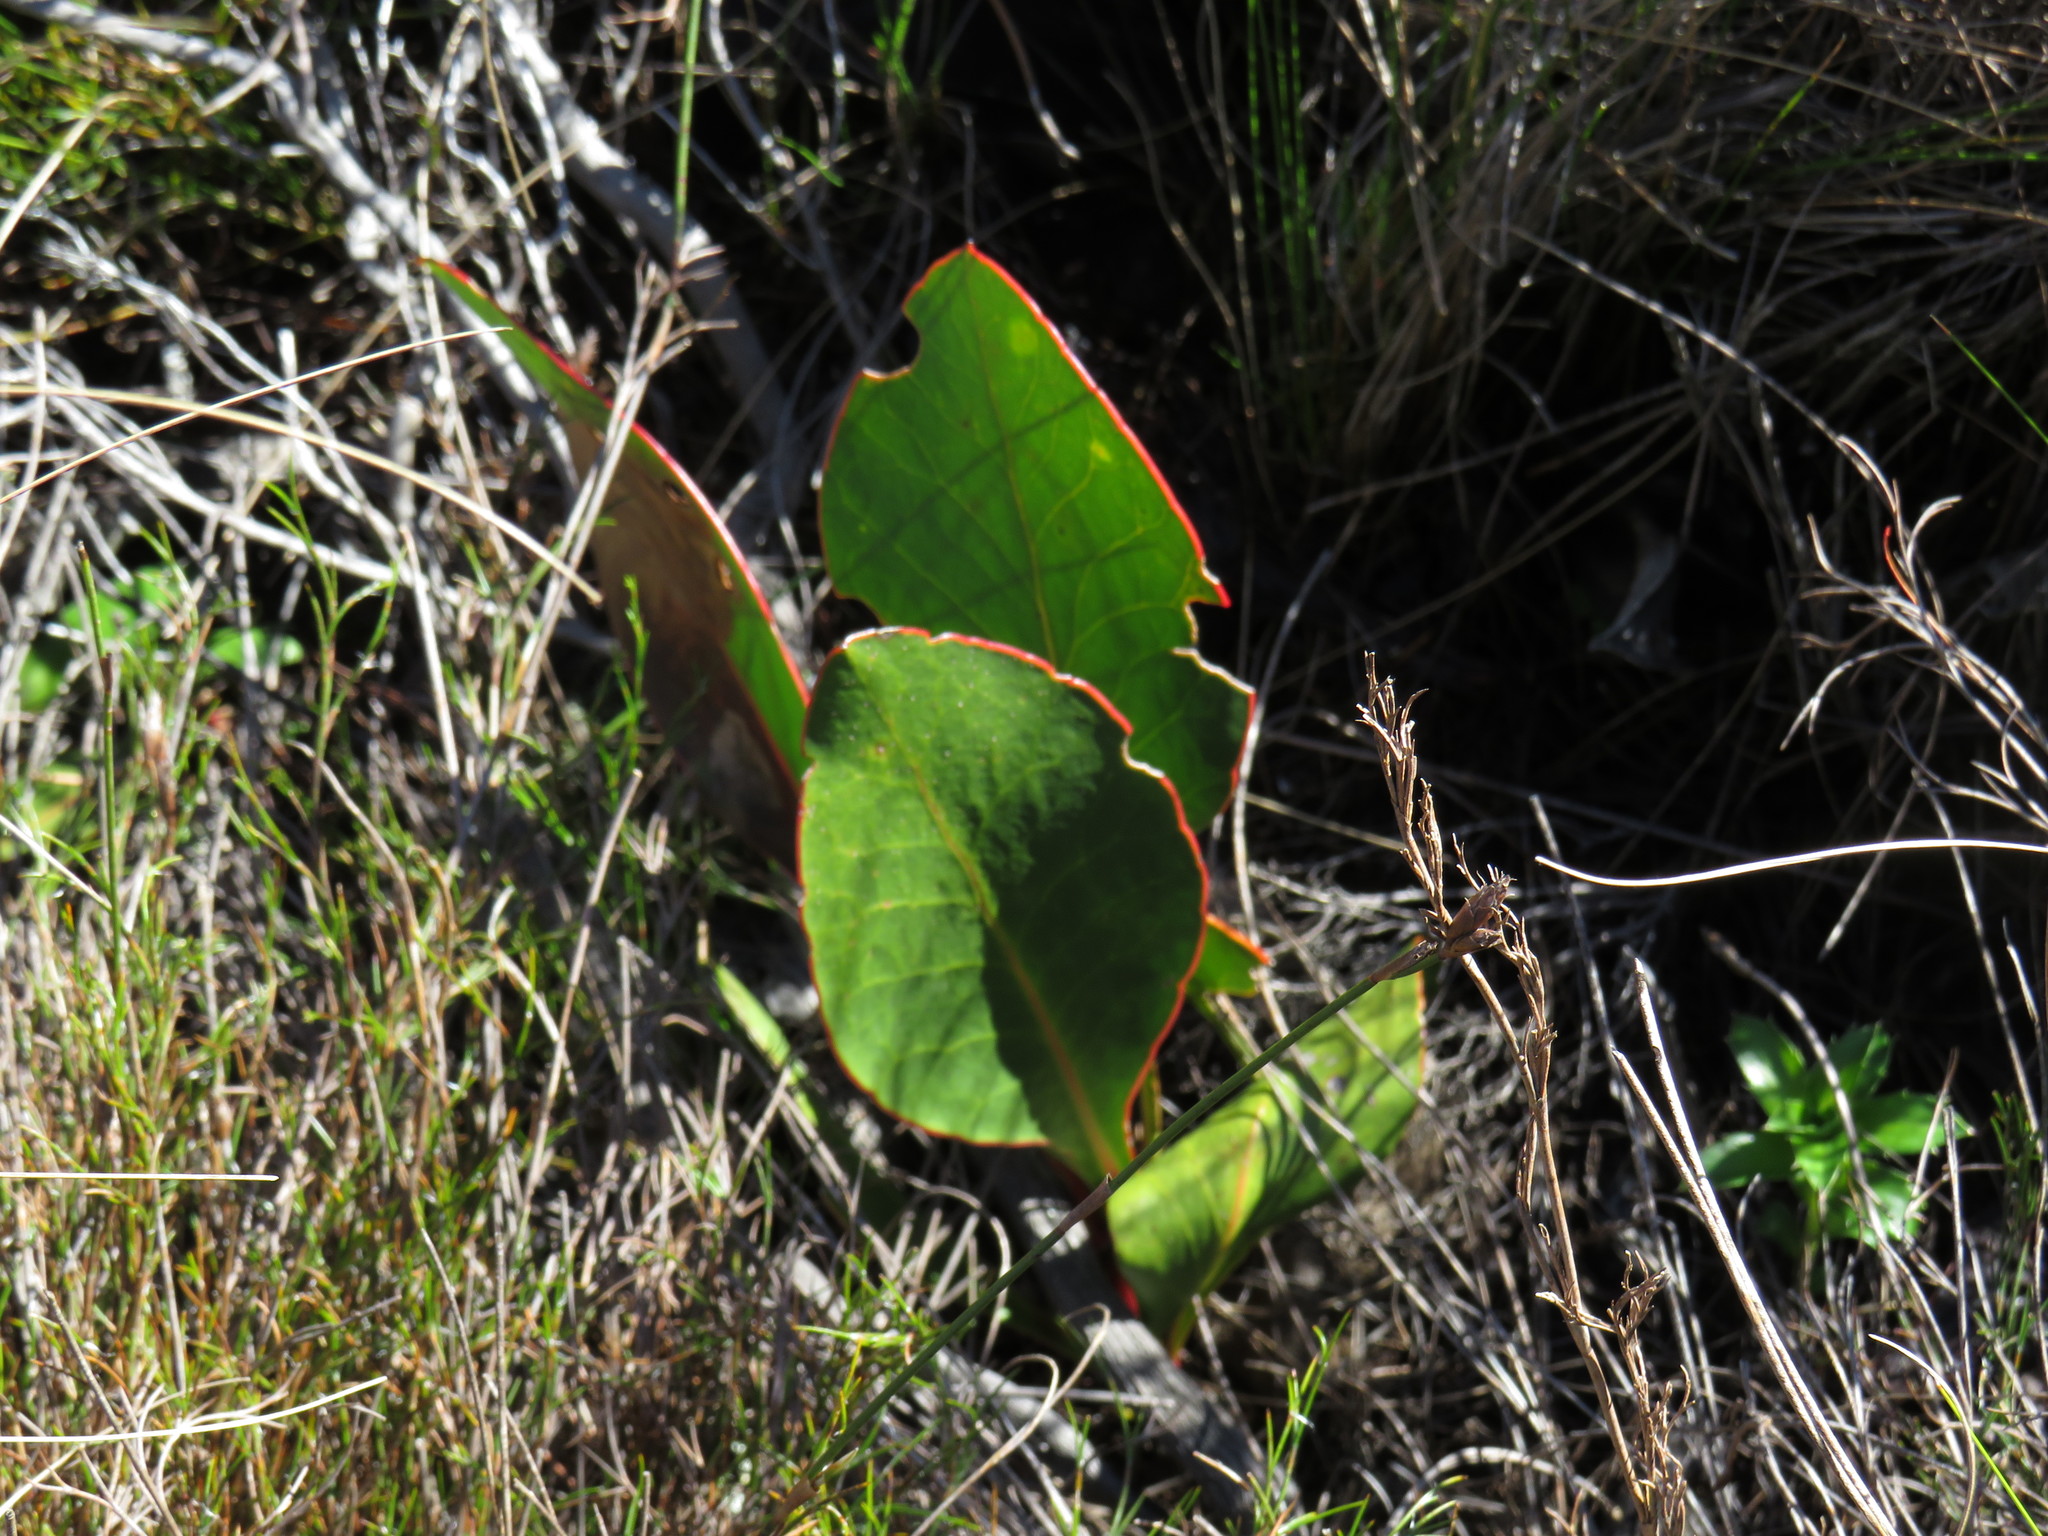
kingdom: Plantae
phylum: Tracheophyta
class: Magnoliopsida
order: Proteales
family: Proteaceae
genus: Protea
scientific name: Protea acaulos
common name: Common ground sugarbush
